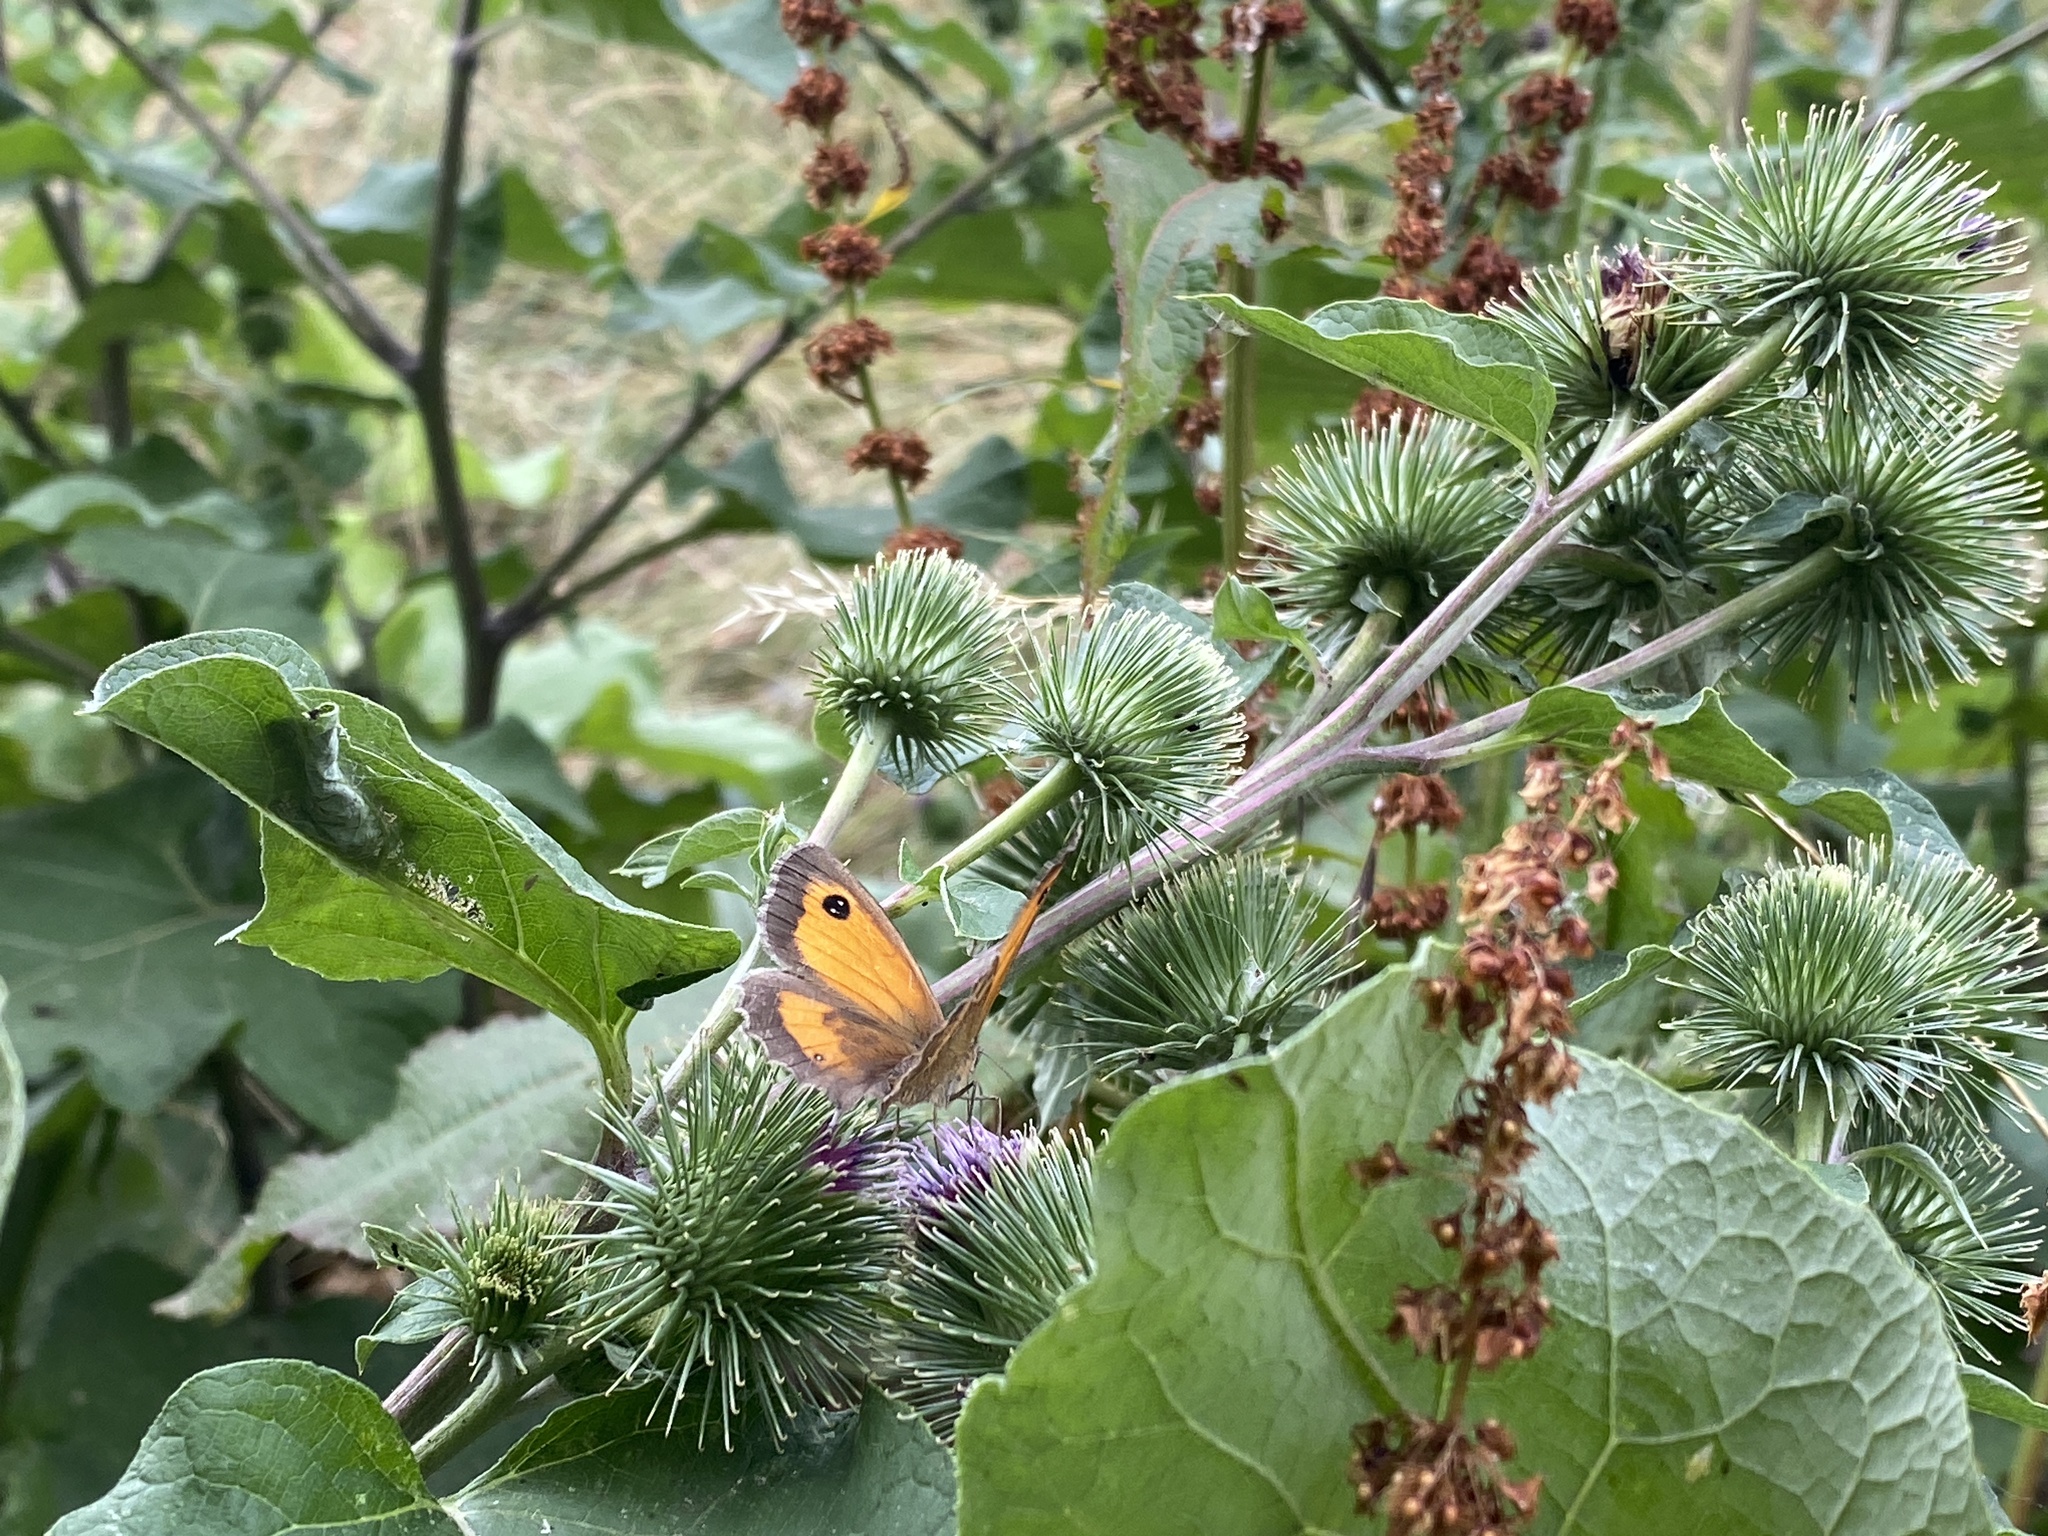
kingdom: Animalia
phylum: Arthropoda
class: Insecta
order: Lepidoptera
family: Nymphalidae
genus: Pyronia
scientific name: Pyronia tithonus
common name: Gatekeeper
